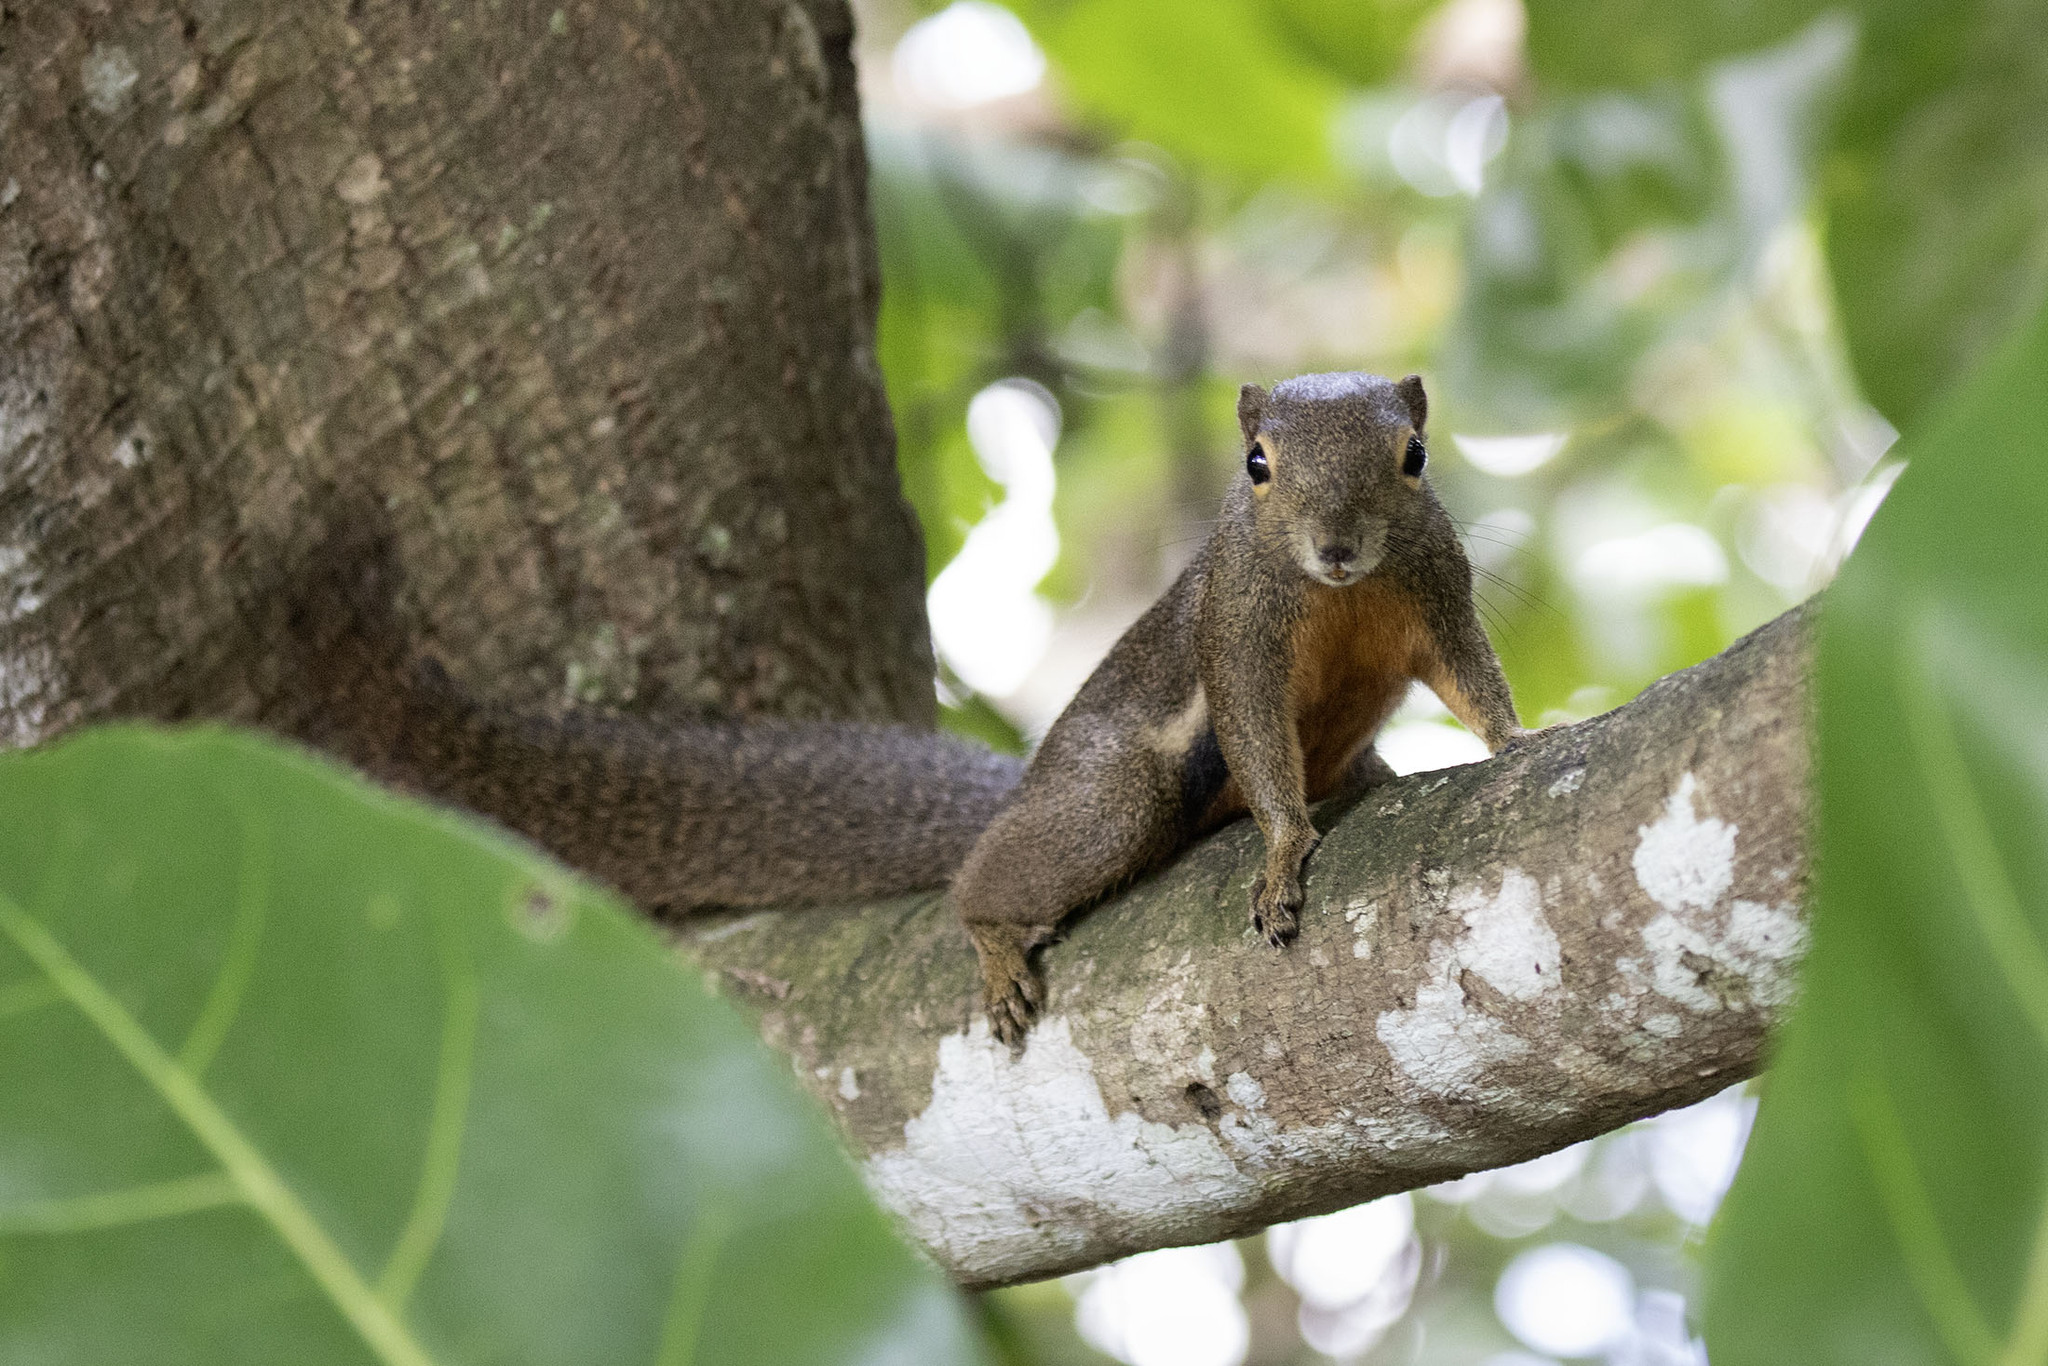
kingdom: Animalia
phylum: Chordata
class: Mammalia
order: Rodentia
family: Sciuridae
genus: Callosciurus
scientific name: Callosciurus notatus
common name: Plantain squirrel
